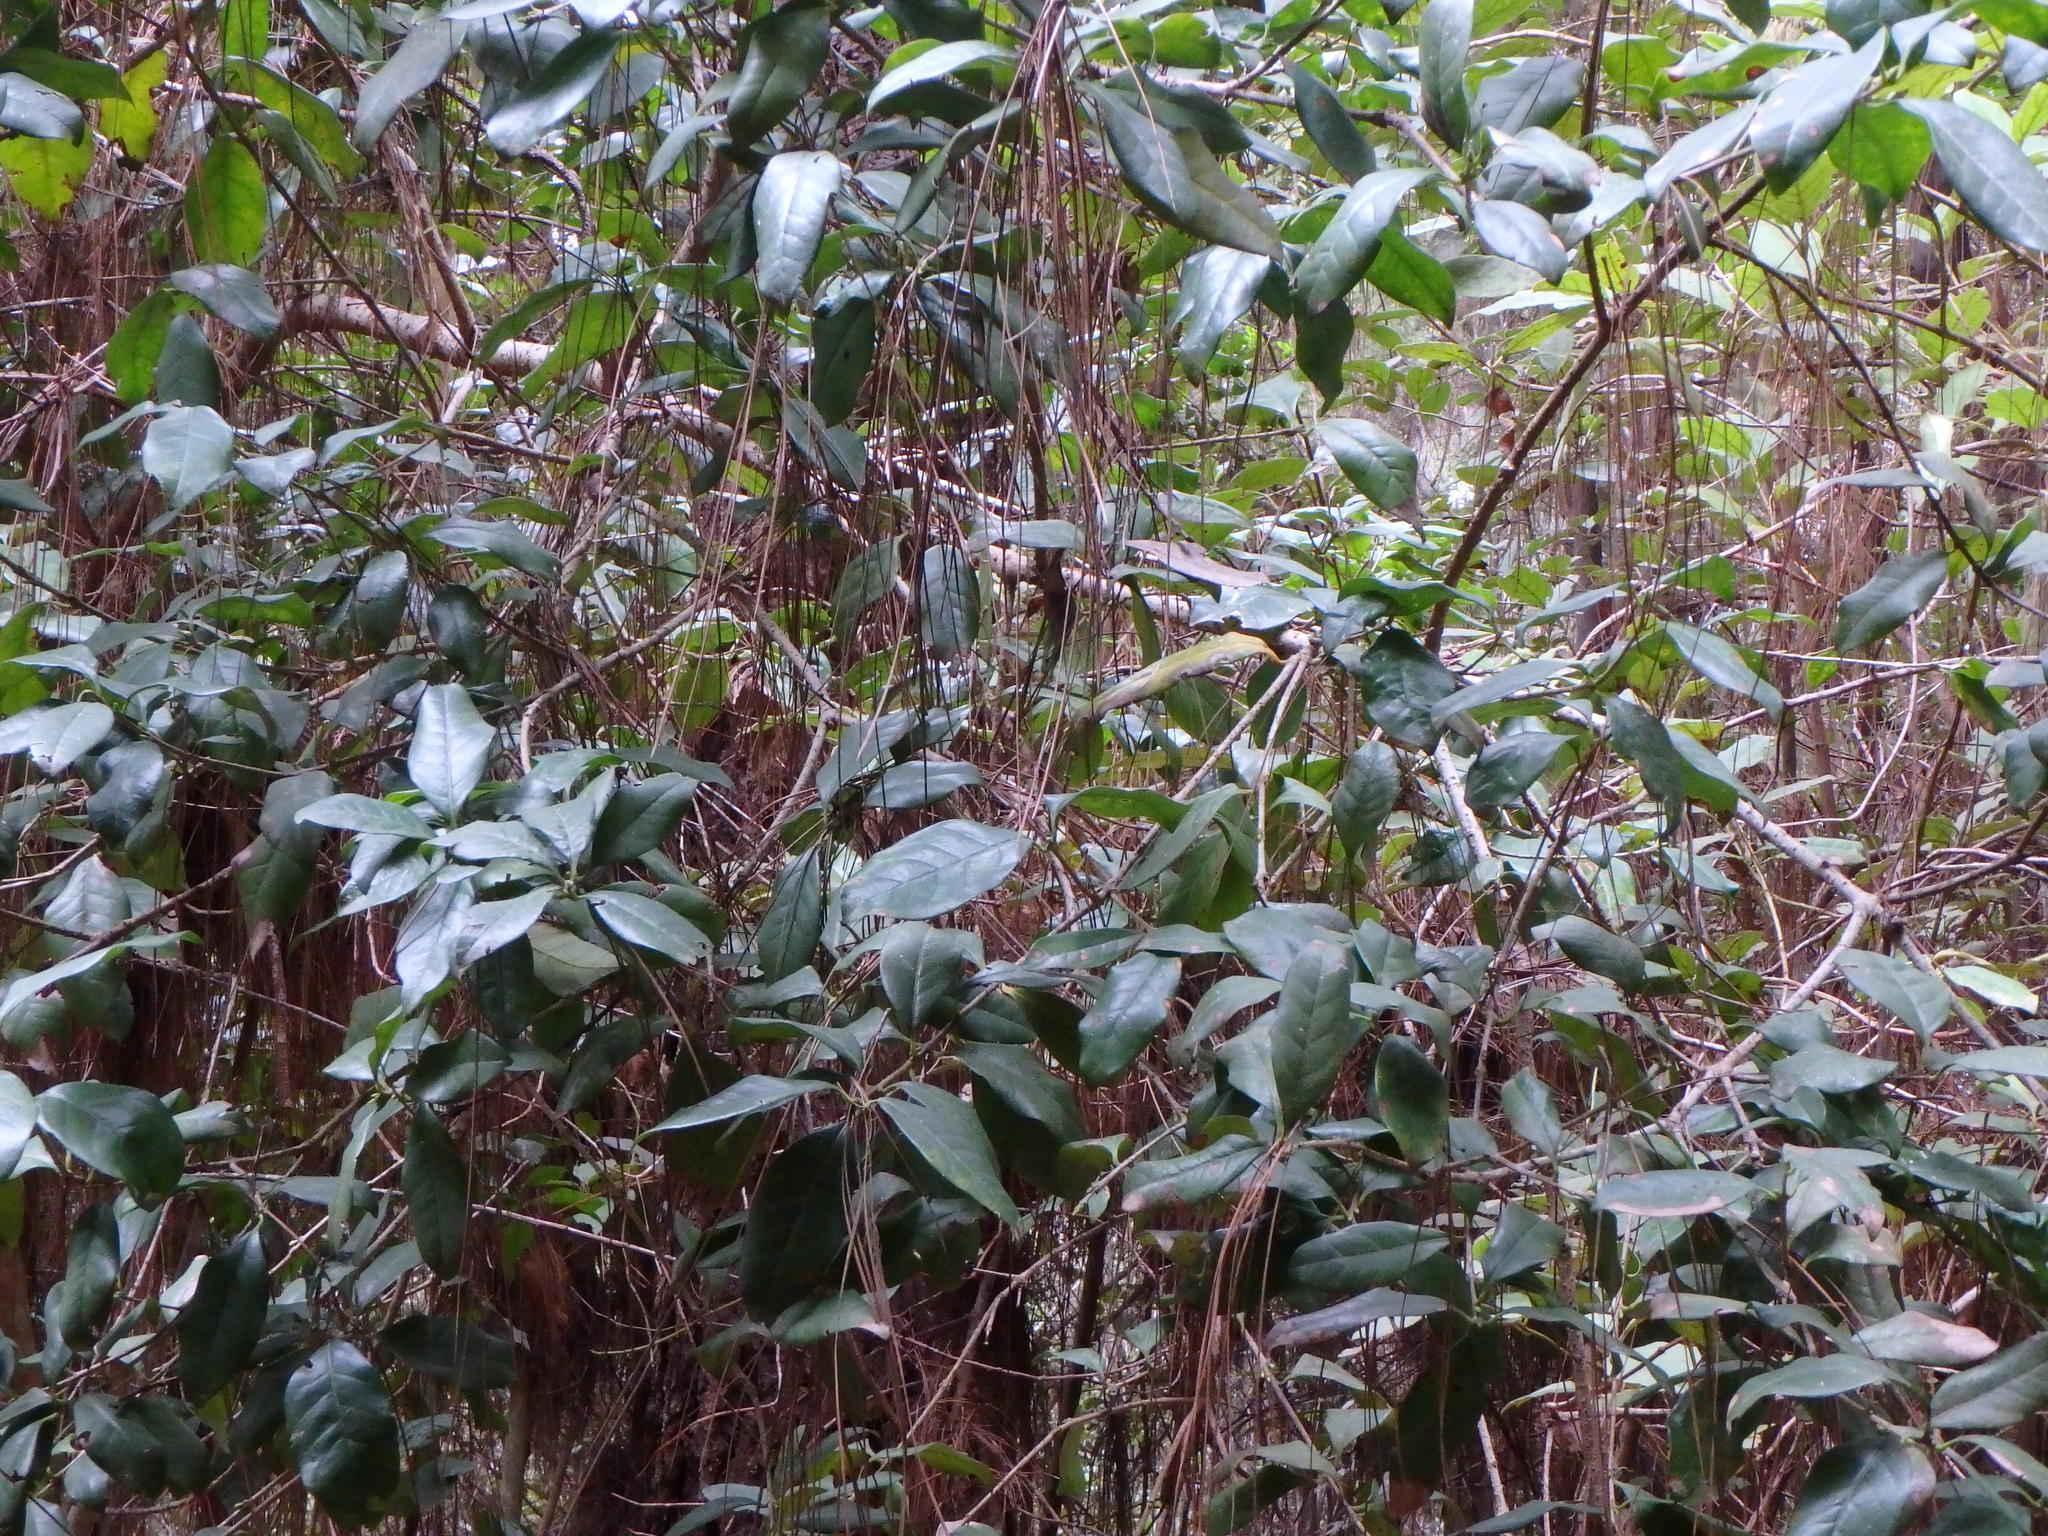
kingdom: Plantae
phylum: Tracheophyta
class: Magnoliopsida
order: Lamiales
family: Oleaceae
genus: Picconia
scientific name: Picconia excelsa
